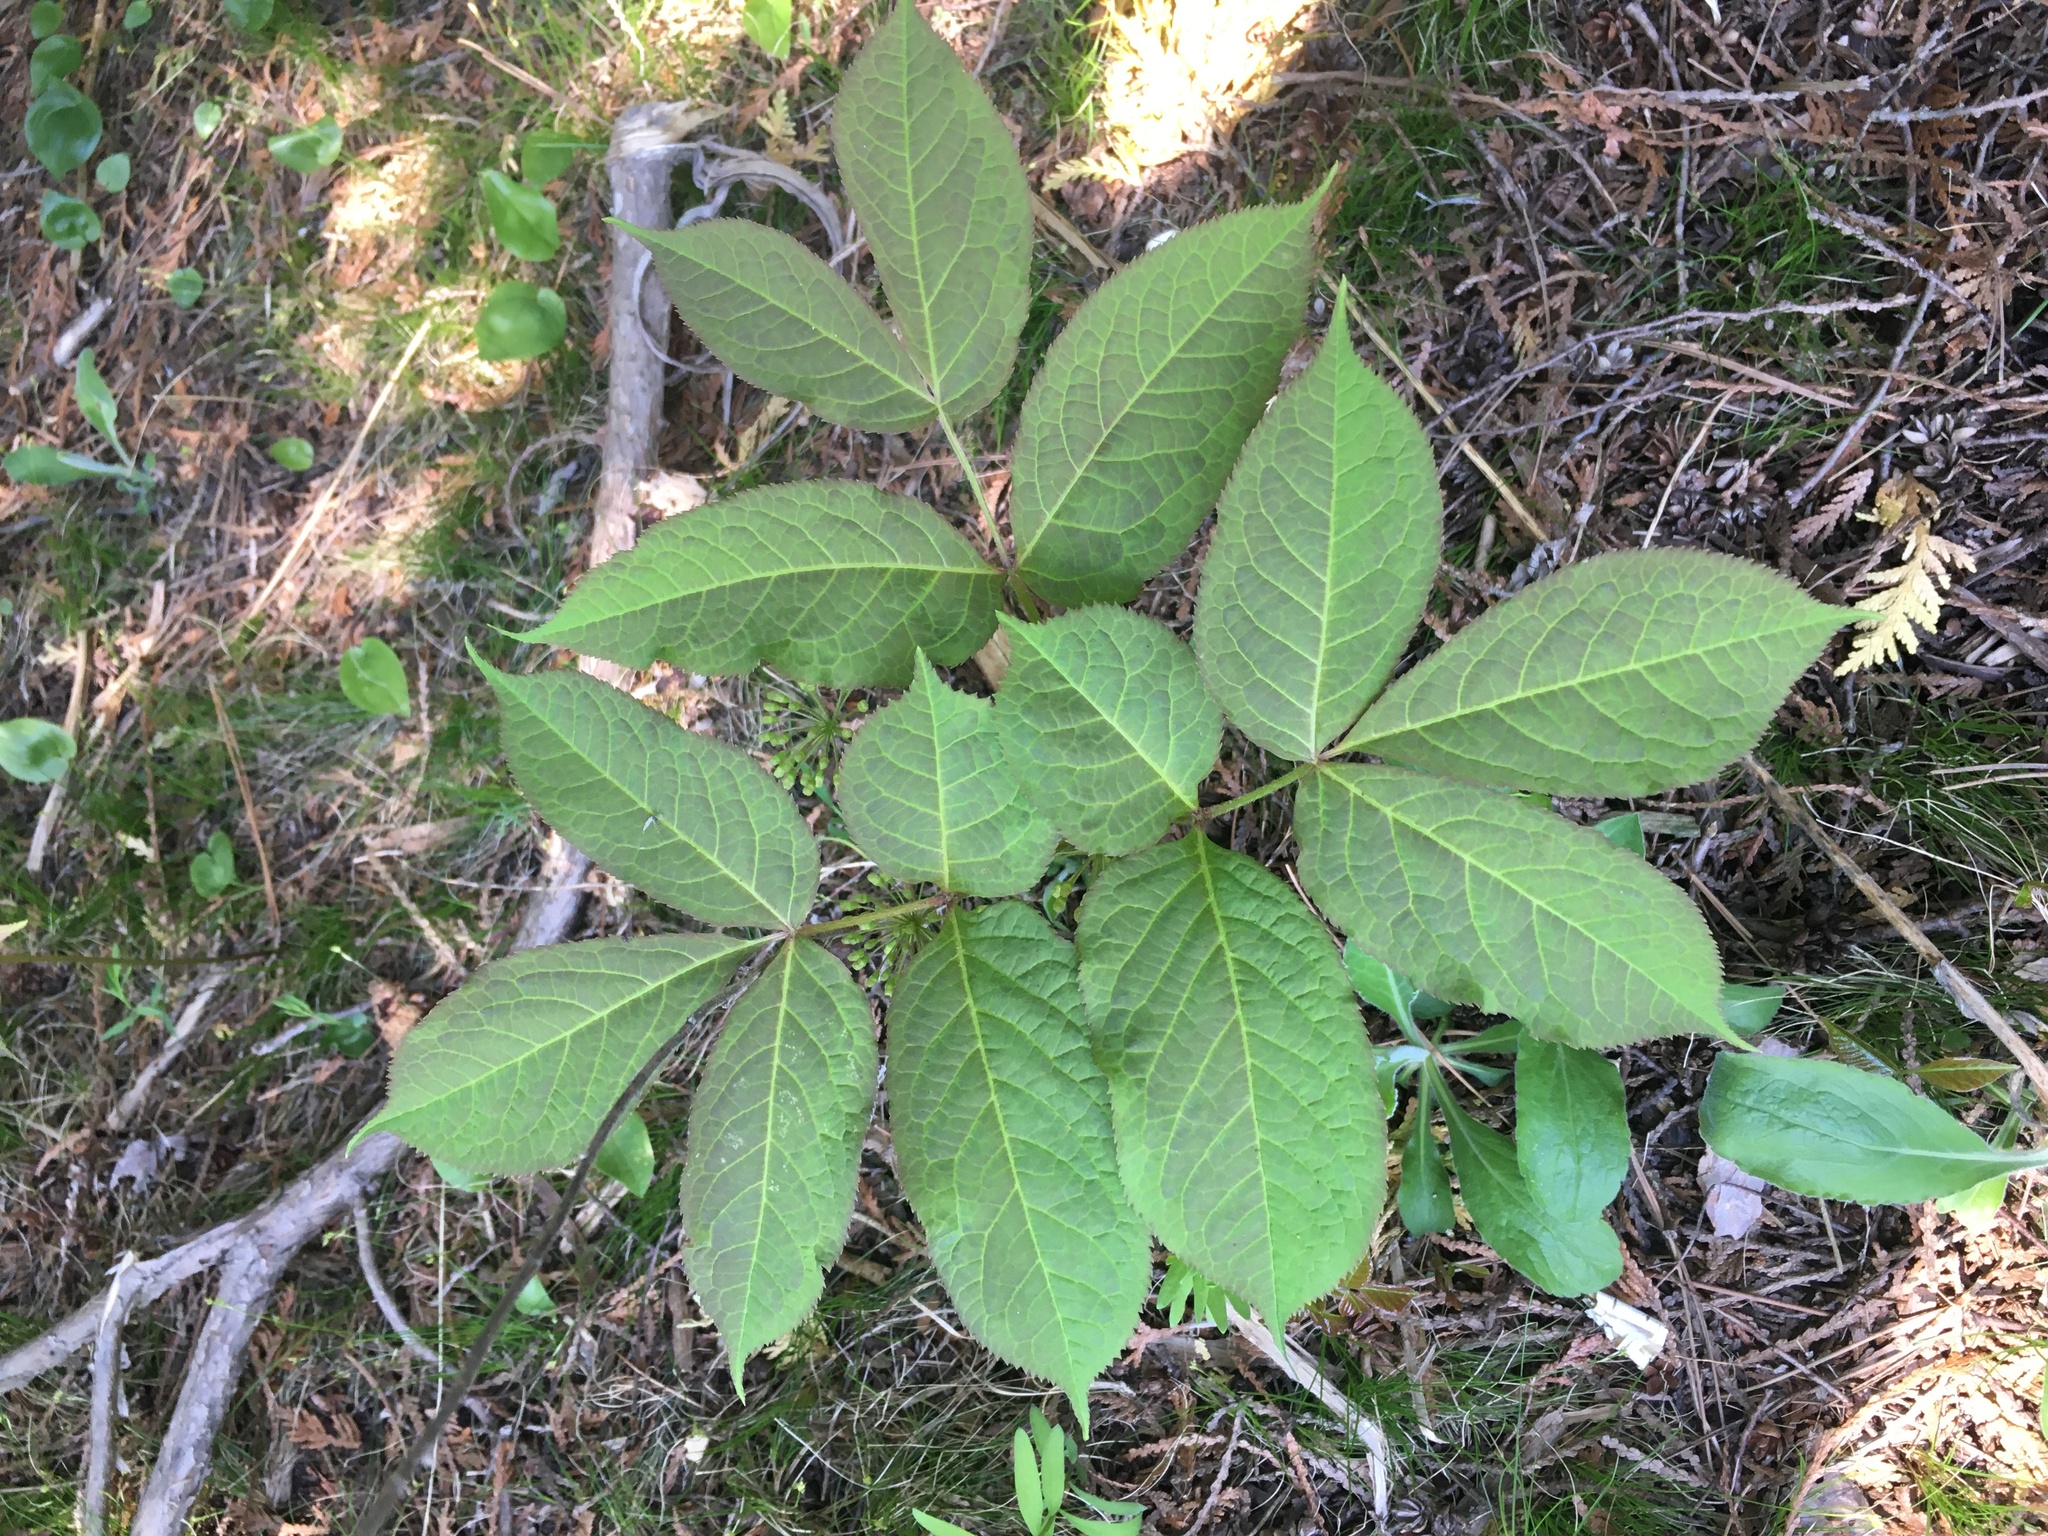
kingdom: Plantae
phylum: Tracheophyta
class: Magnoliopsida
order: Apiales
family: Araliaceae
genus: Aralia
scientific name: Aralia nudicaulis
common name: Wild sarsaparilla
